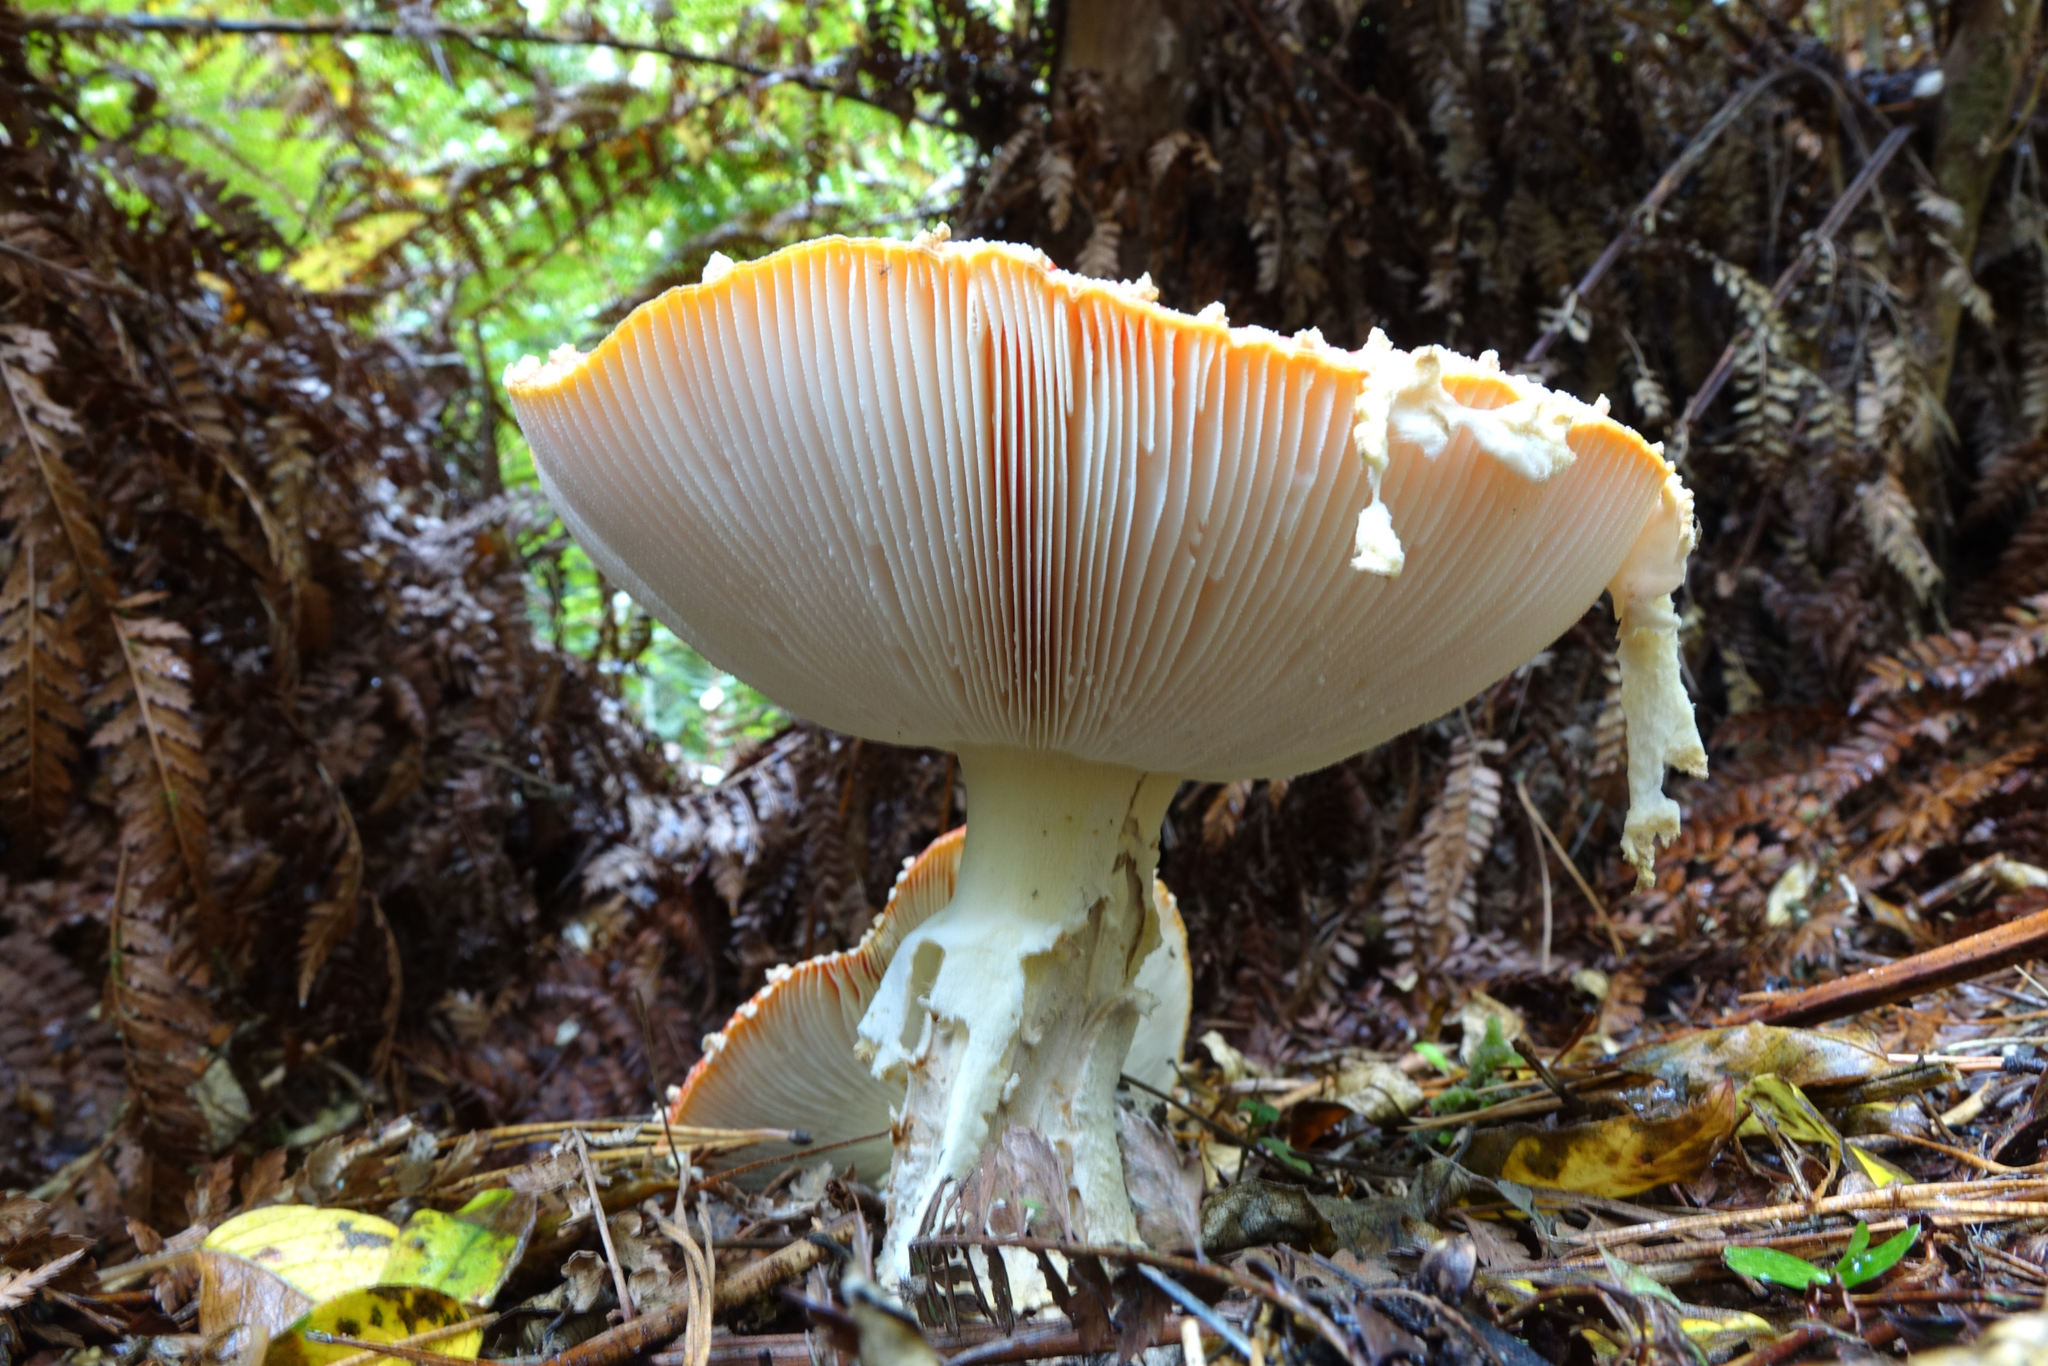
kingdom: Fungi
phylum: Basidiomycota
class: Agaricomycetes
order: Agaricales
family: Amanitaceae
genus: Amanita
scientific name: Amanita muscaria
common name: Fly agaric
